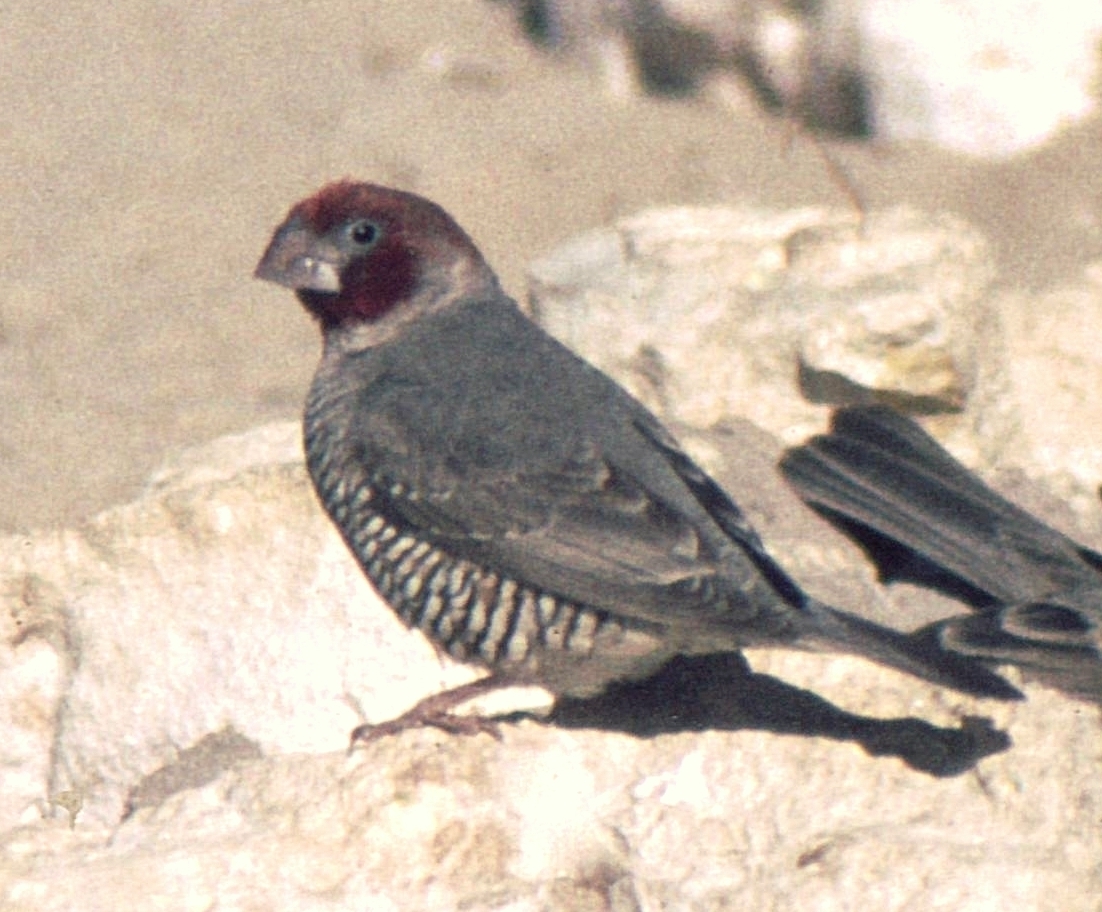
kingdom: Animalia
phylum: Chordata
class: Aves
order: Passeriformes
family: Estrildidae
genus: Amadina
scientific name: Amadina erythrocephala
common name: Red-headed finch
